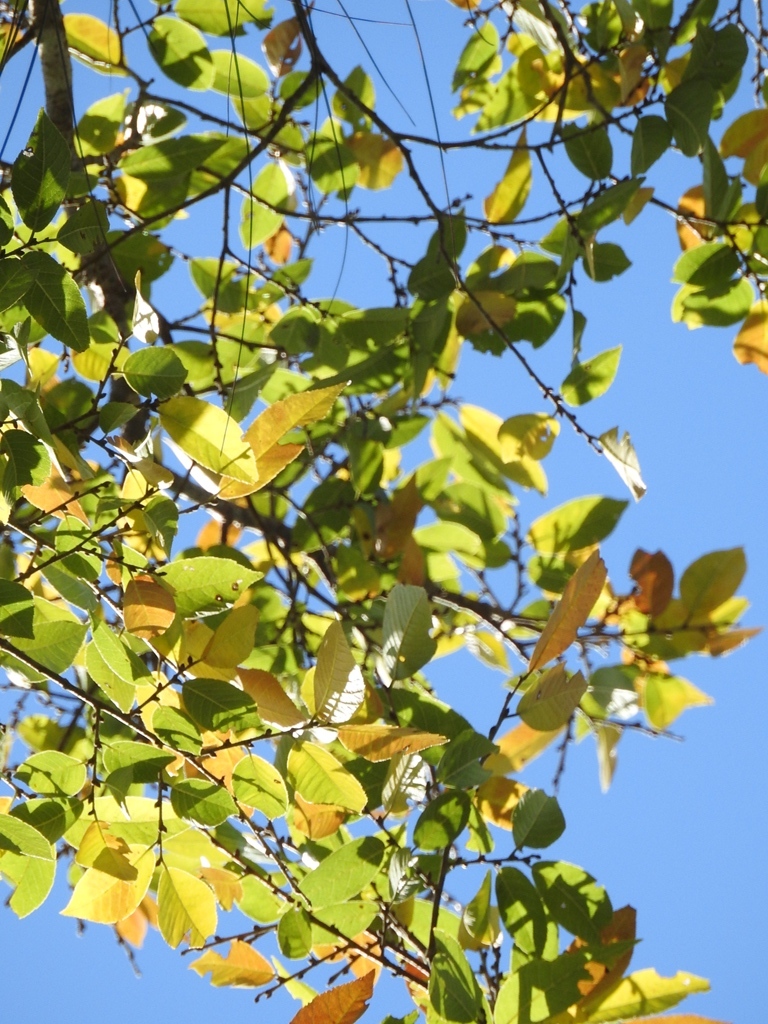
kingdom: Plantae
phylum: Tracheophyta
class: Magnoliopsida
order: Rosales
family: Ulmaceae
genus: Ulmus
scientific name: Ulmus ismaelis
